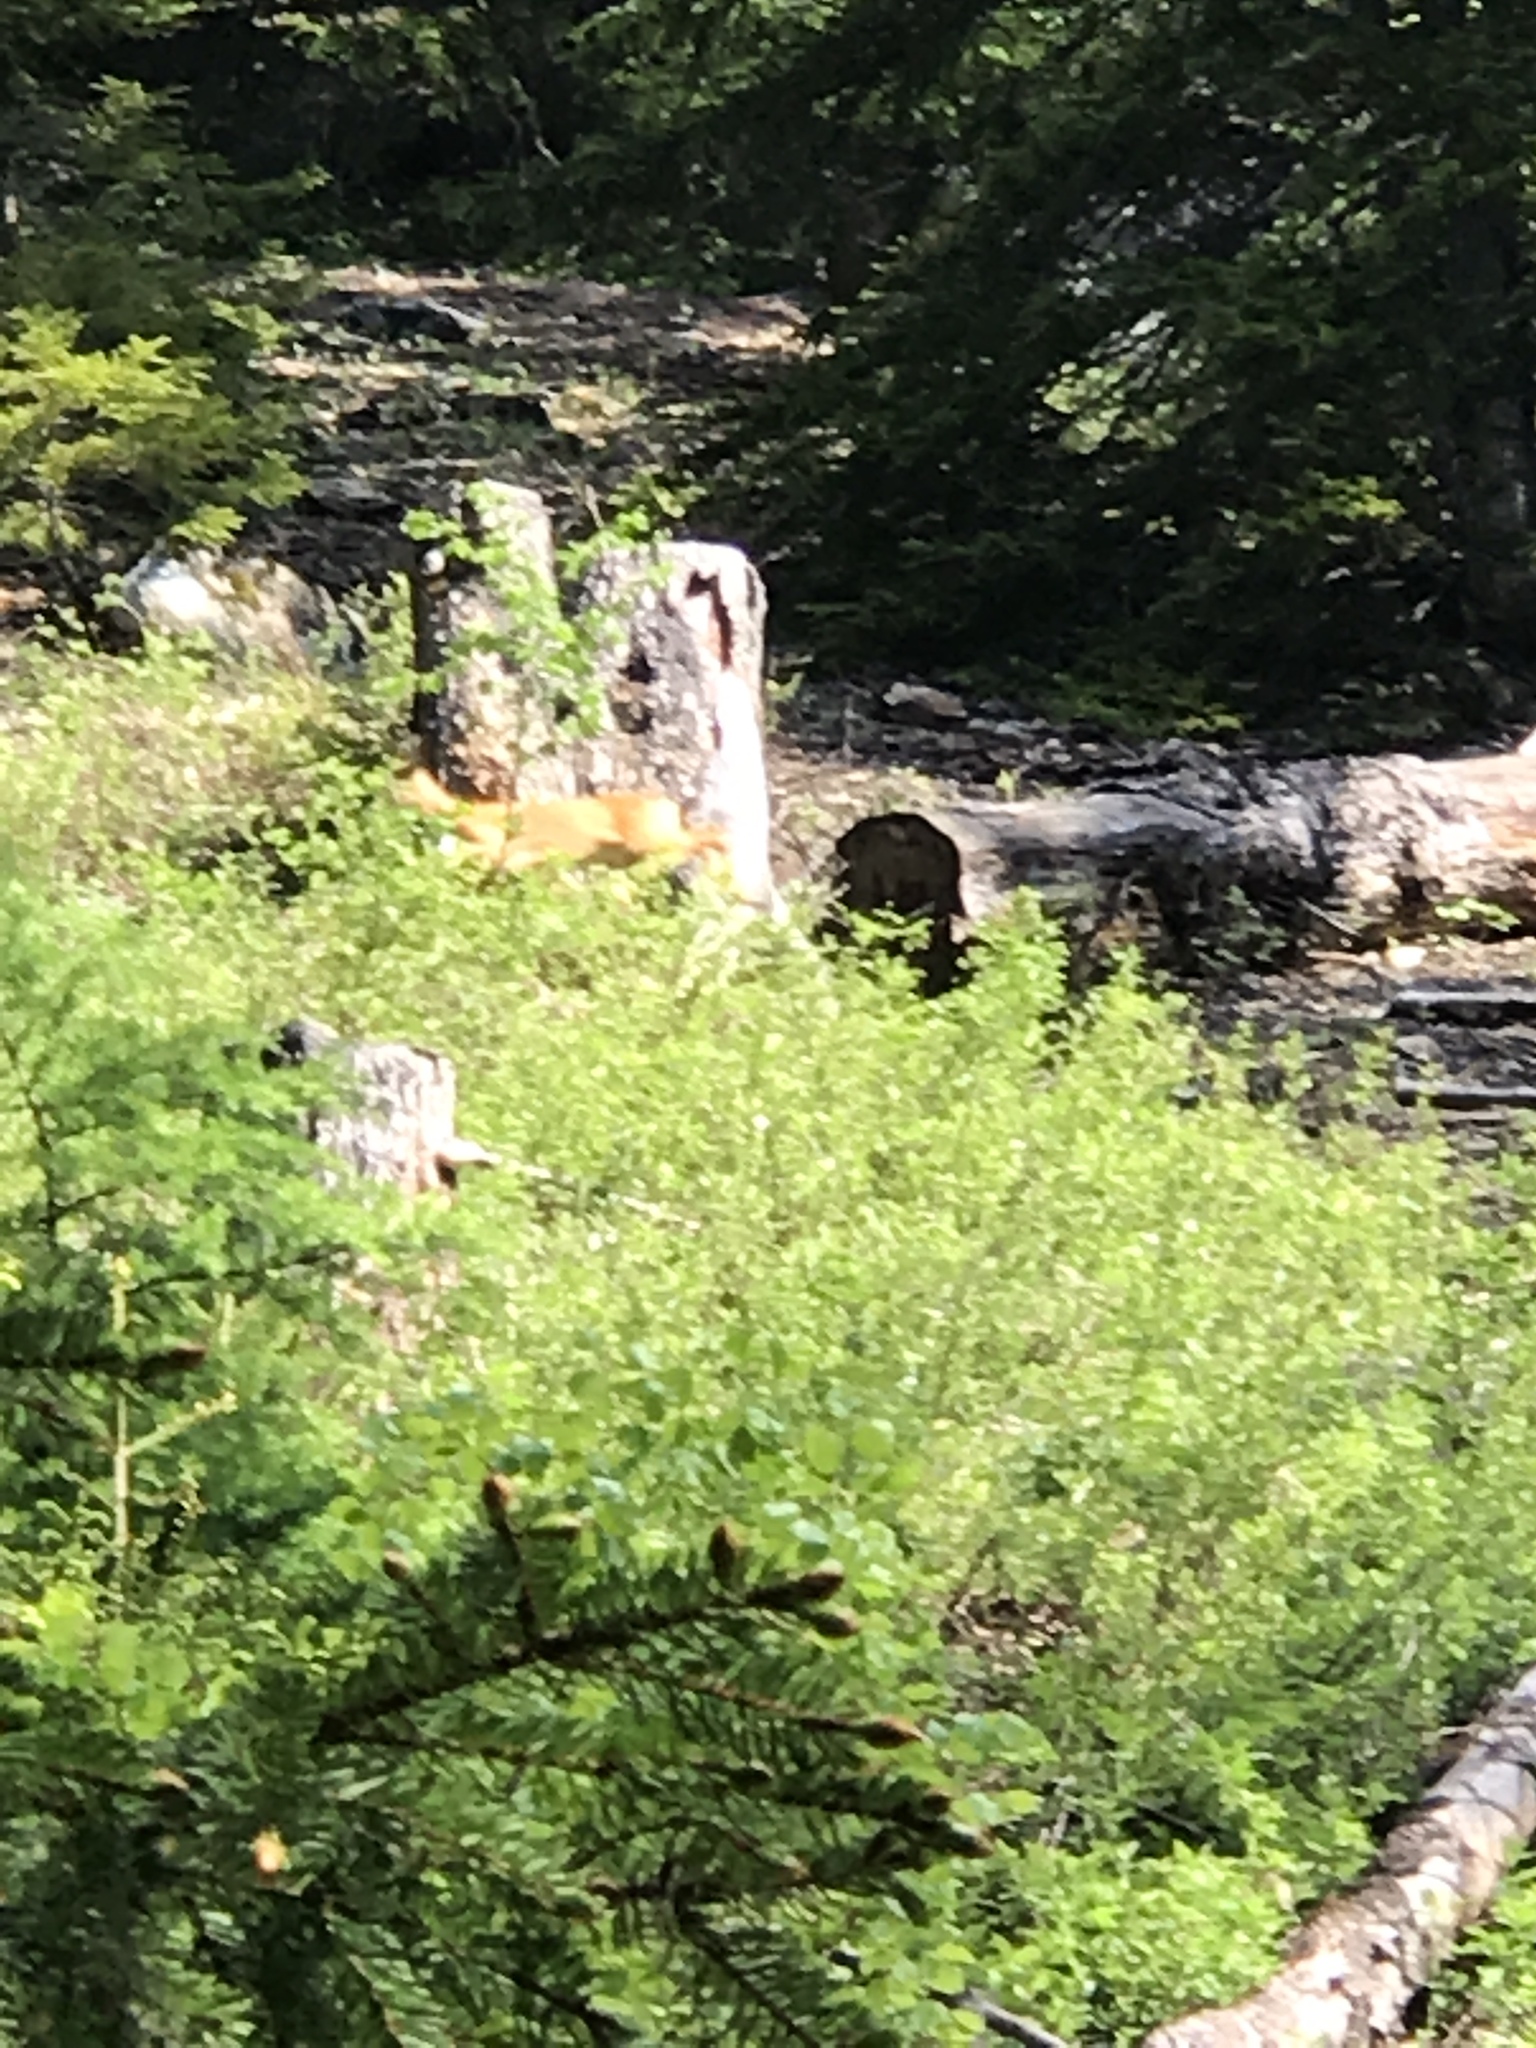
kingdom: Animalia
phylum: Chordata
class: Mammalia
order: Artiodactyla
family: Cervidae
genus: Capreolus
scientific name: Capreolus capreolus
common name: Western roe deer
